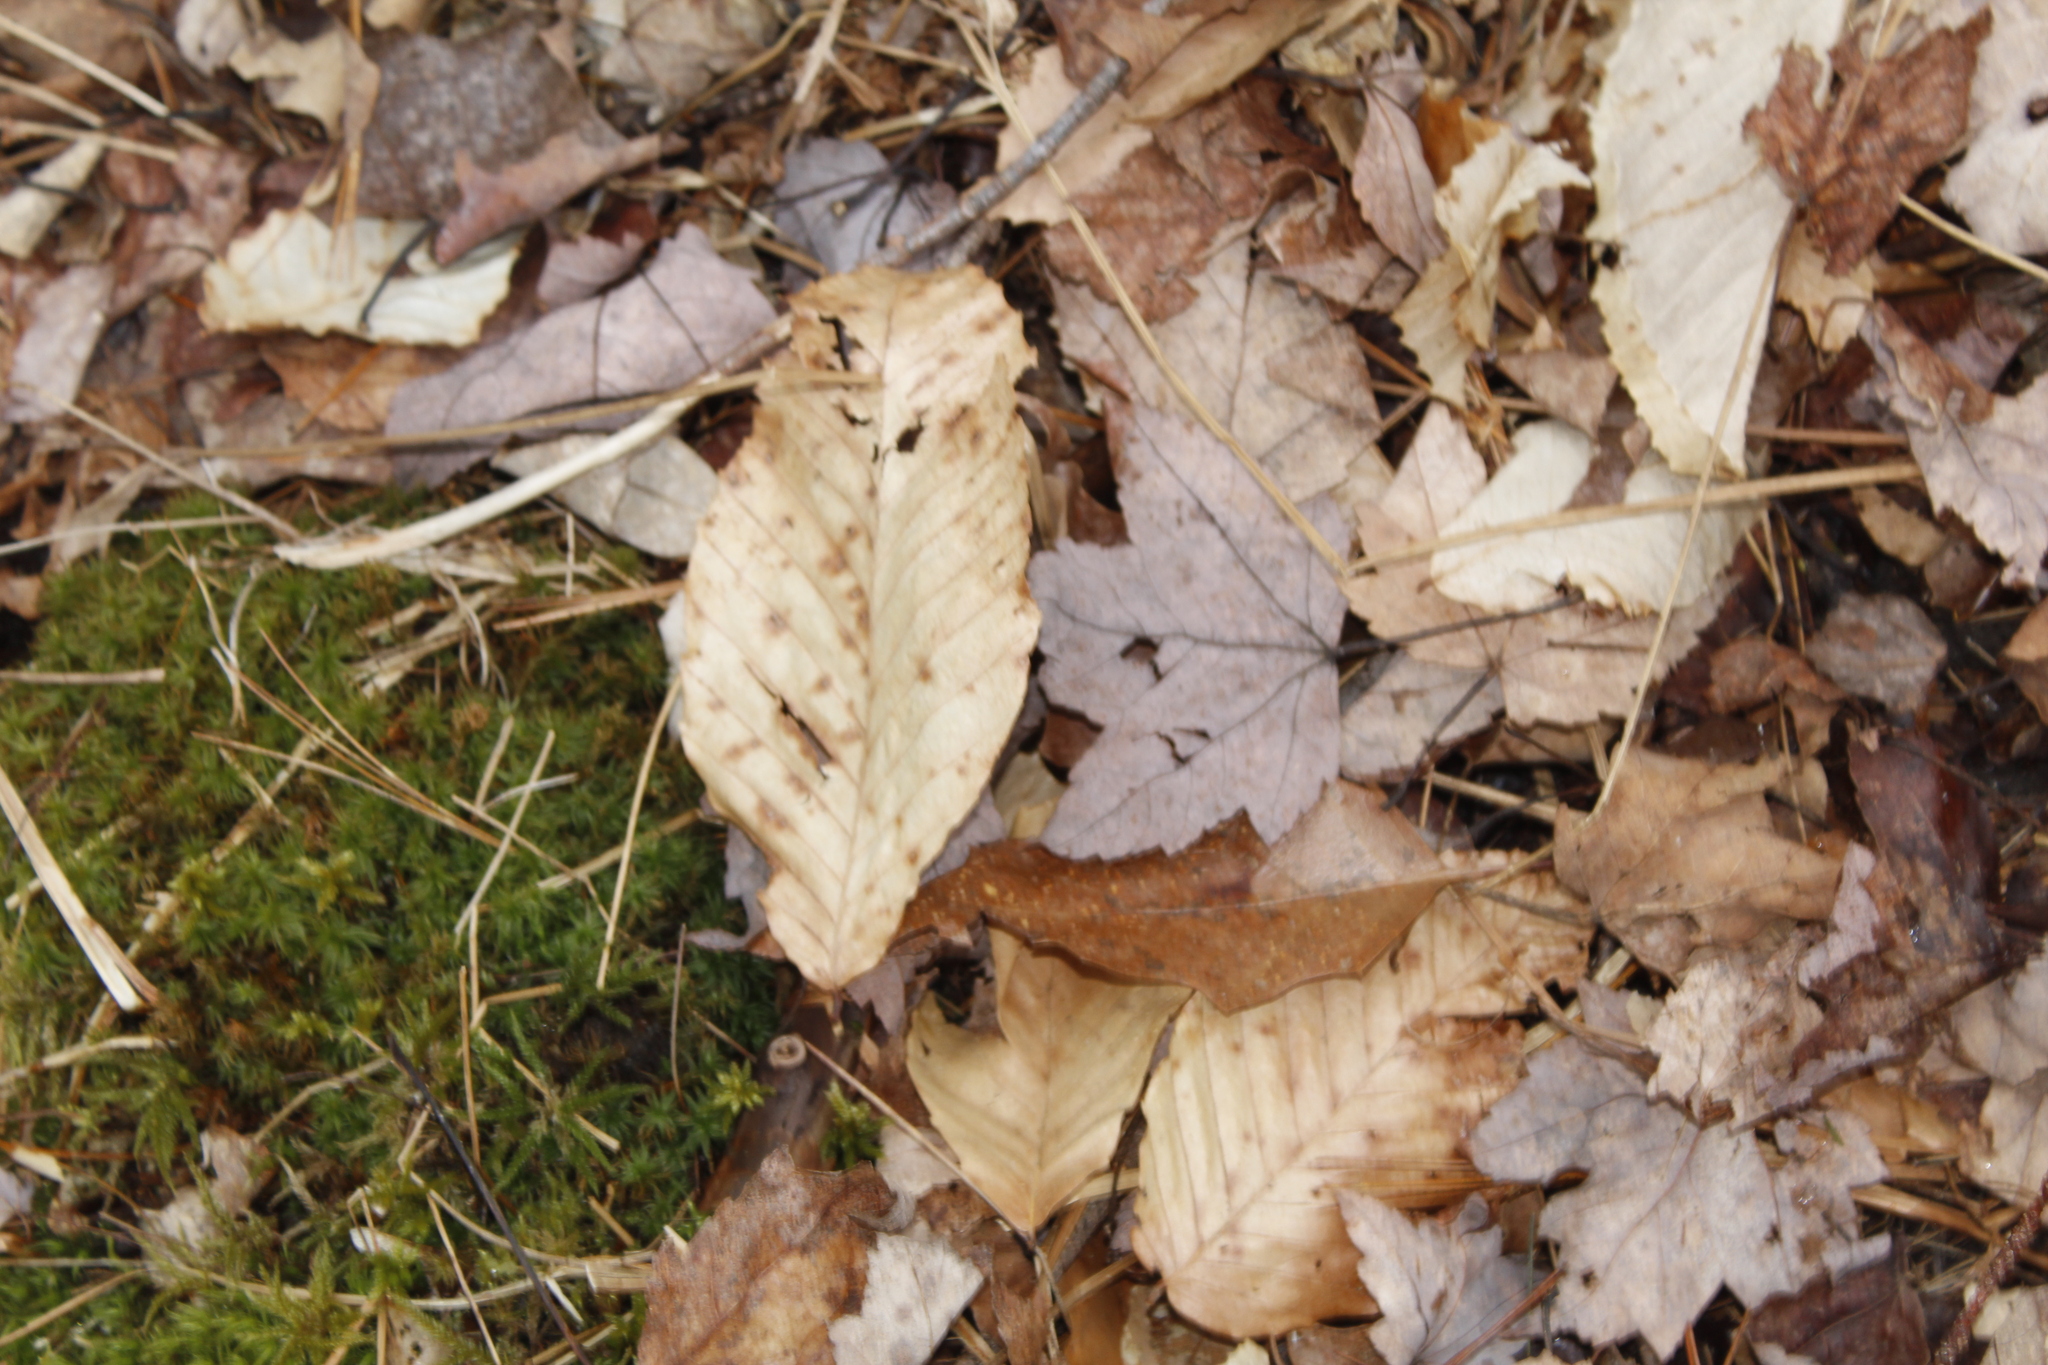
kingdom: Plantae
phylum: Tracheophyta
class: Magnoliopsida
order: Fagales
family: Fagaceae
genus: Fagus
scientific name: Fagus grandifolia
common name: American beech
